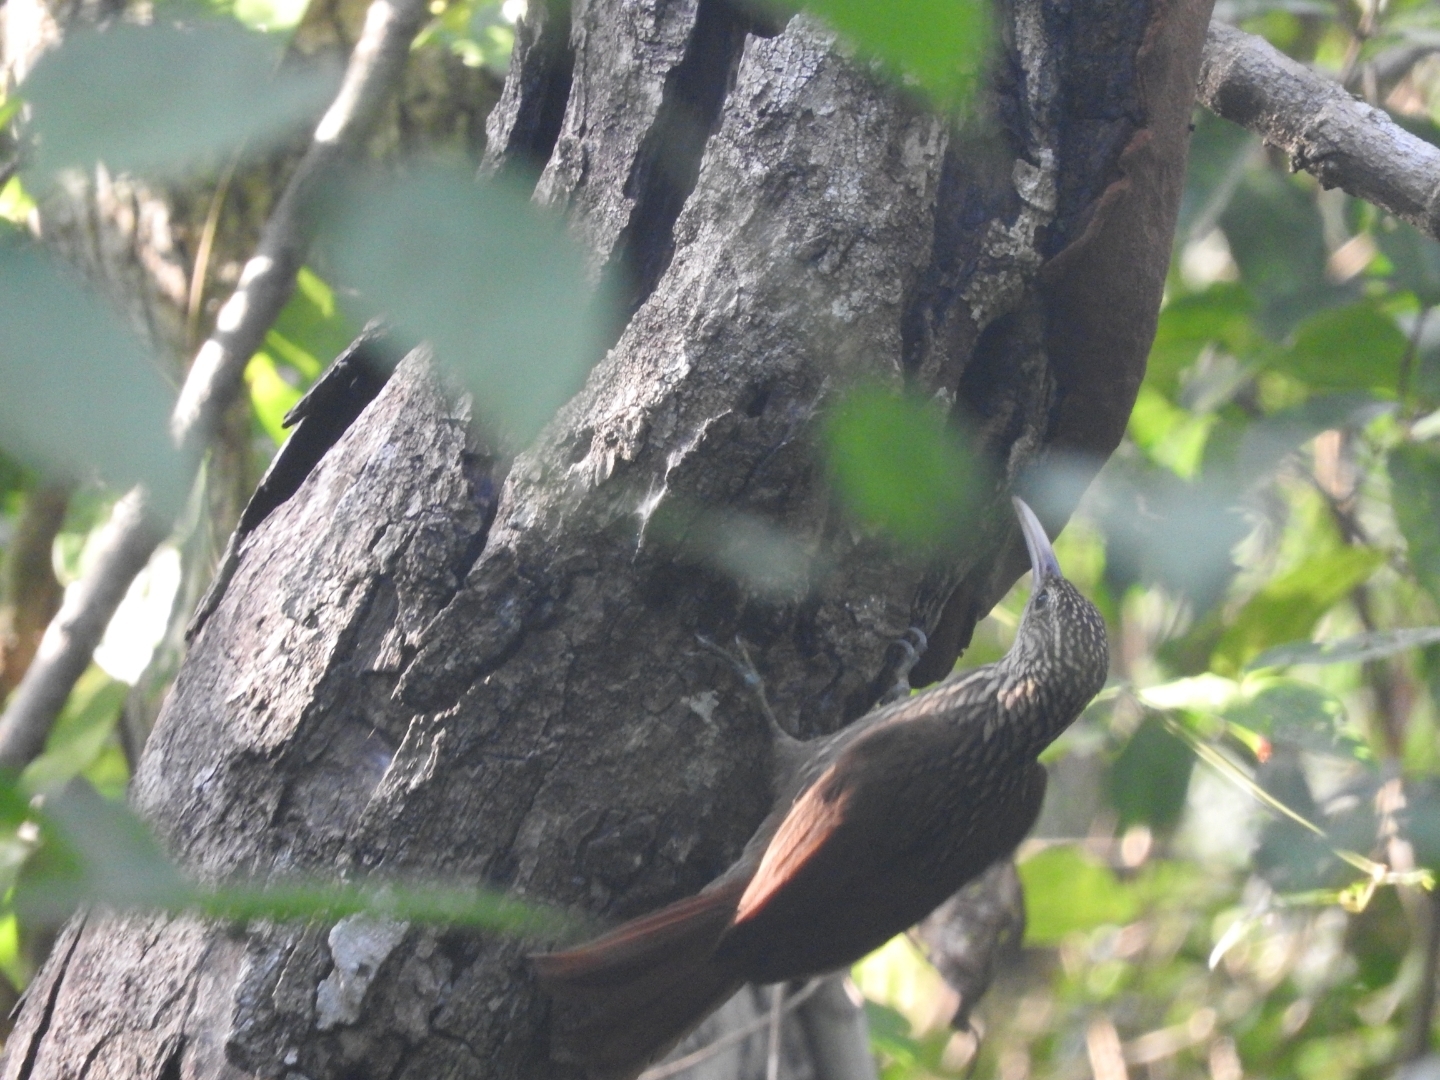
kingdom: Animalia
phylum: Chordata
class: Aves
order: Passeriformes
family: Furnariidae
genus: Xiphorhynchus
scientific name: Xiphorhynchus flavigaster
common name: Ivory-billed woodcreeper
